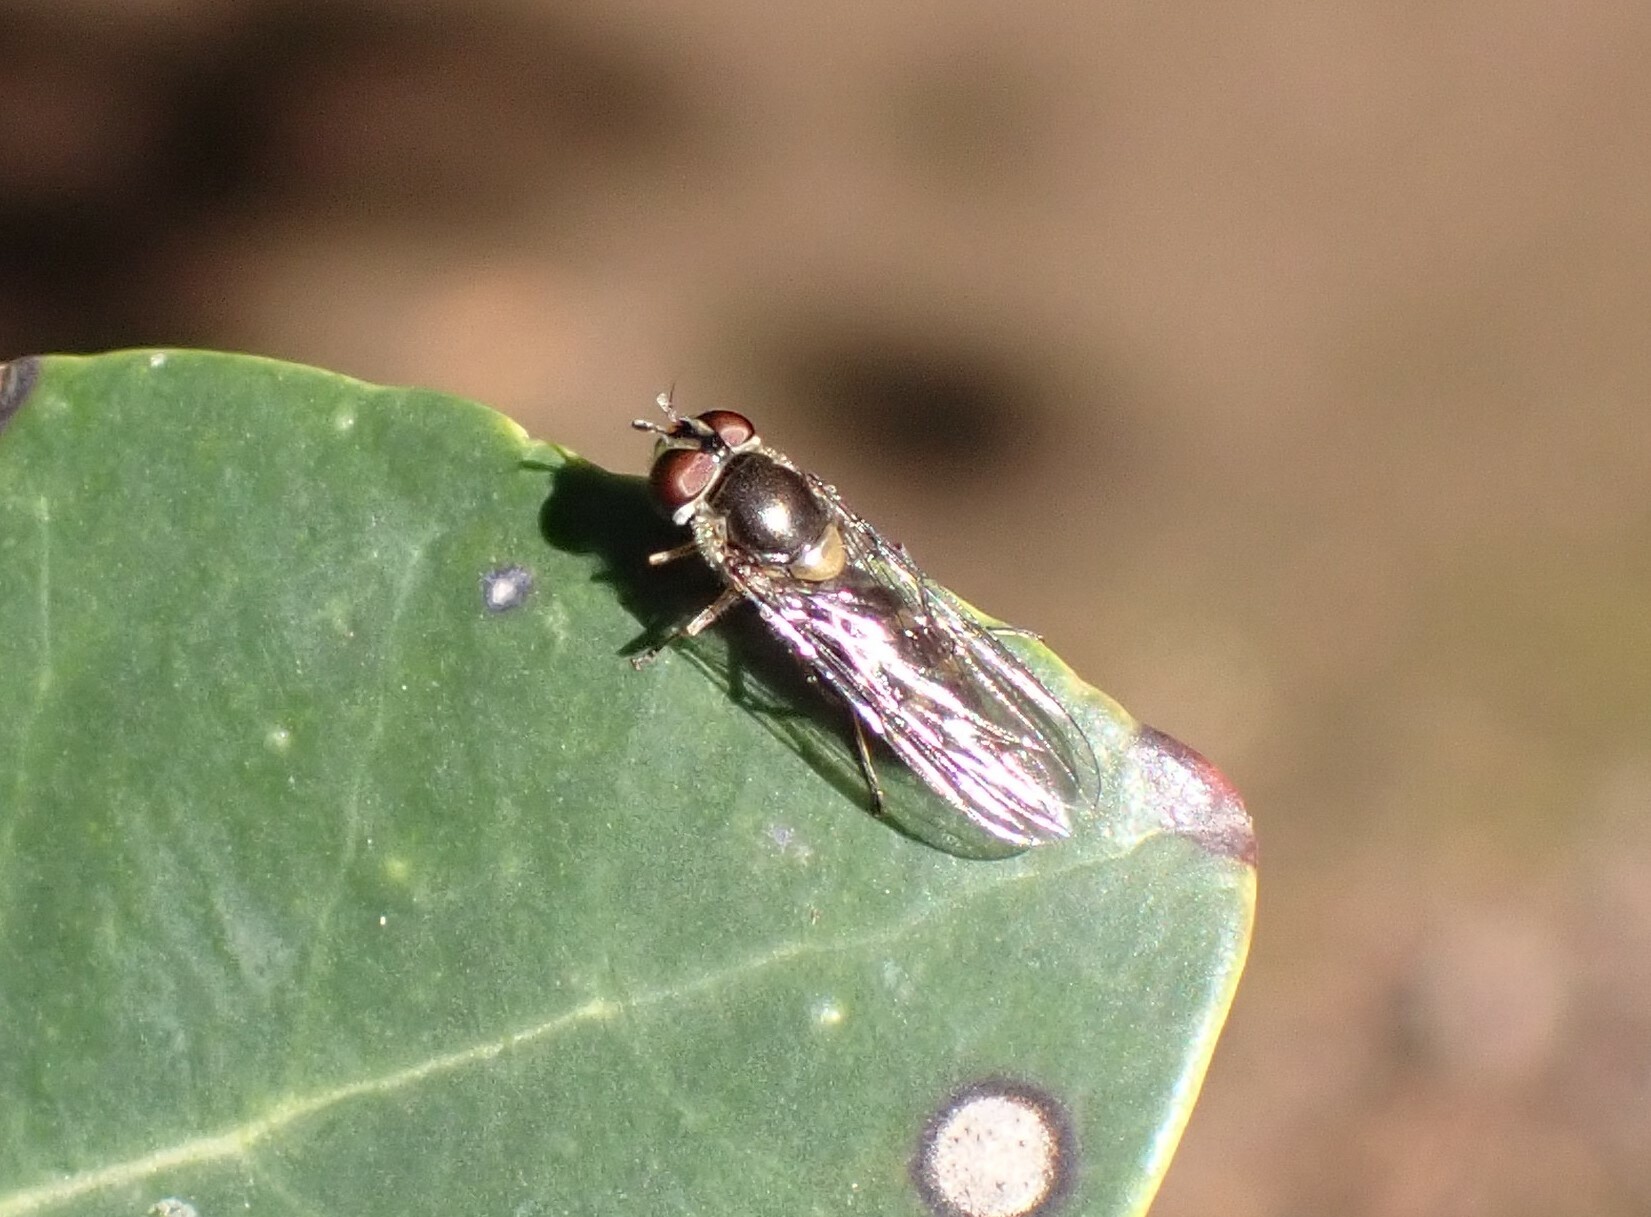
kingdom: Animalia
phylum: Arthropoda
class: Insecta
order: Diptera
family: Syrphidae
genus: Meliscaeva
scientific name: Meliscaeva auricollis
